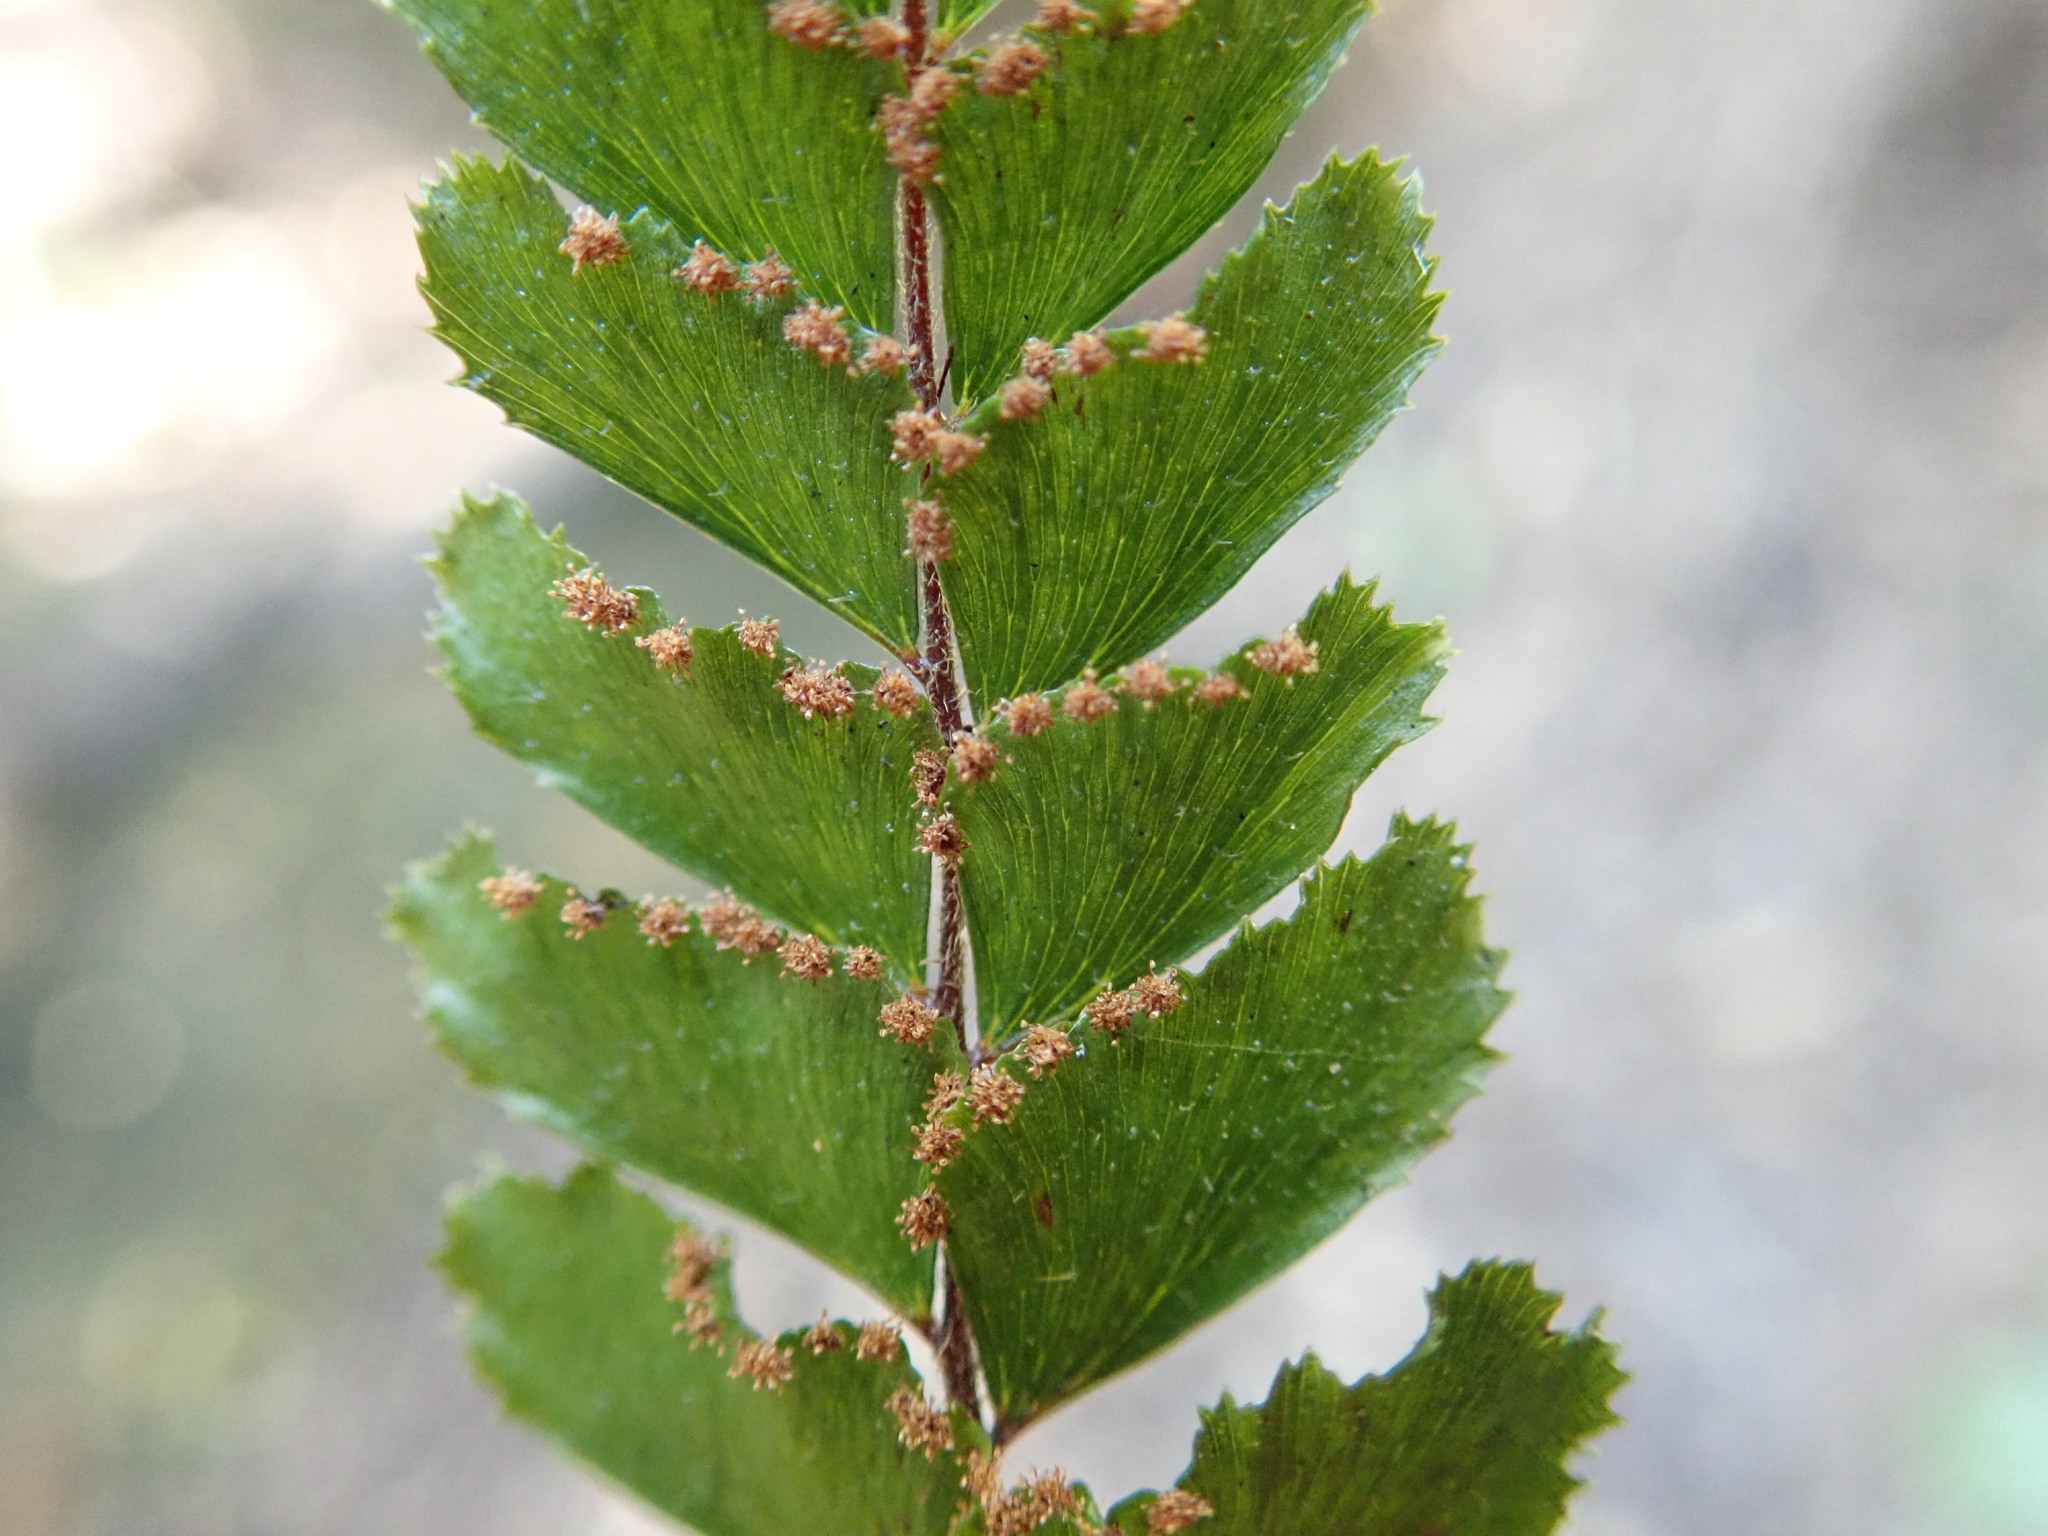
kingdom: Plantae
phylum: Tracheophyta
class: Polypodiopsida
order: Polypodiales
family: Pteridaceae
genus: Adiantum
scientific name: Adiantum hispidulum
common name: Rough maidenhair
